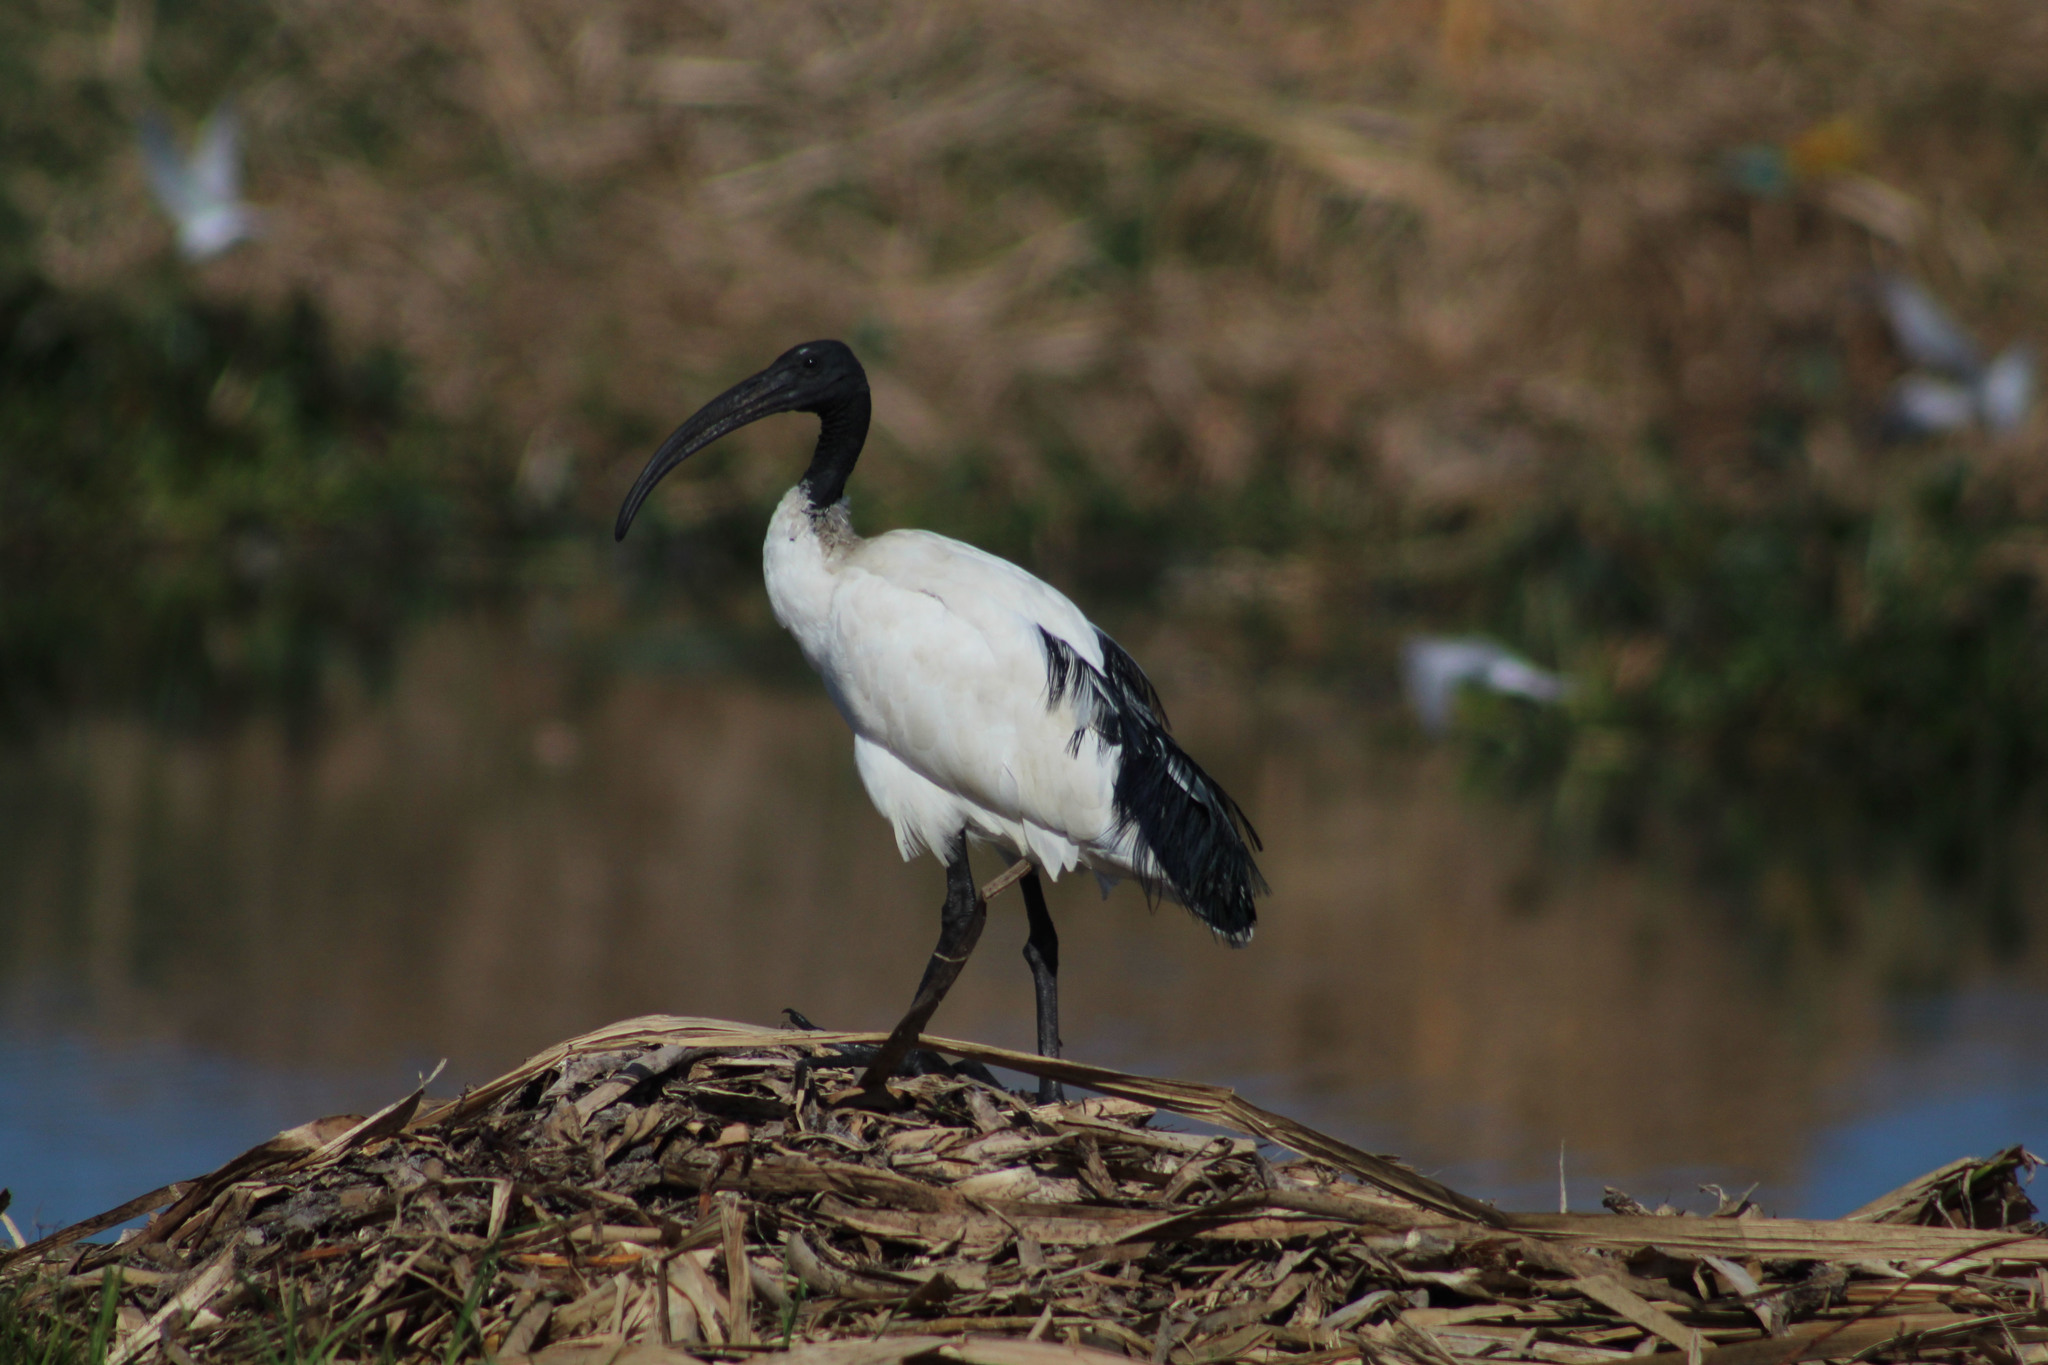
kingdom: Animalia
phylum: Chordata
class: Aves
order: Pelecaniformes
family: Threskiornithidae
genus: Threskiornis
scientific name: Threskiornis aethiopicus
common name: Sacred ibis
